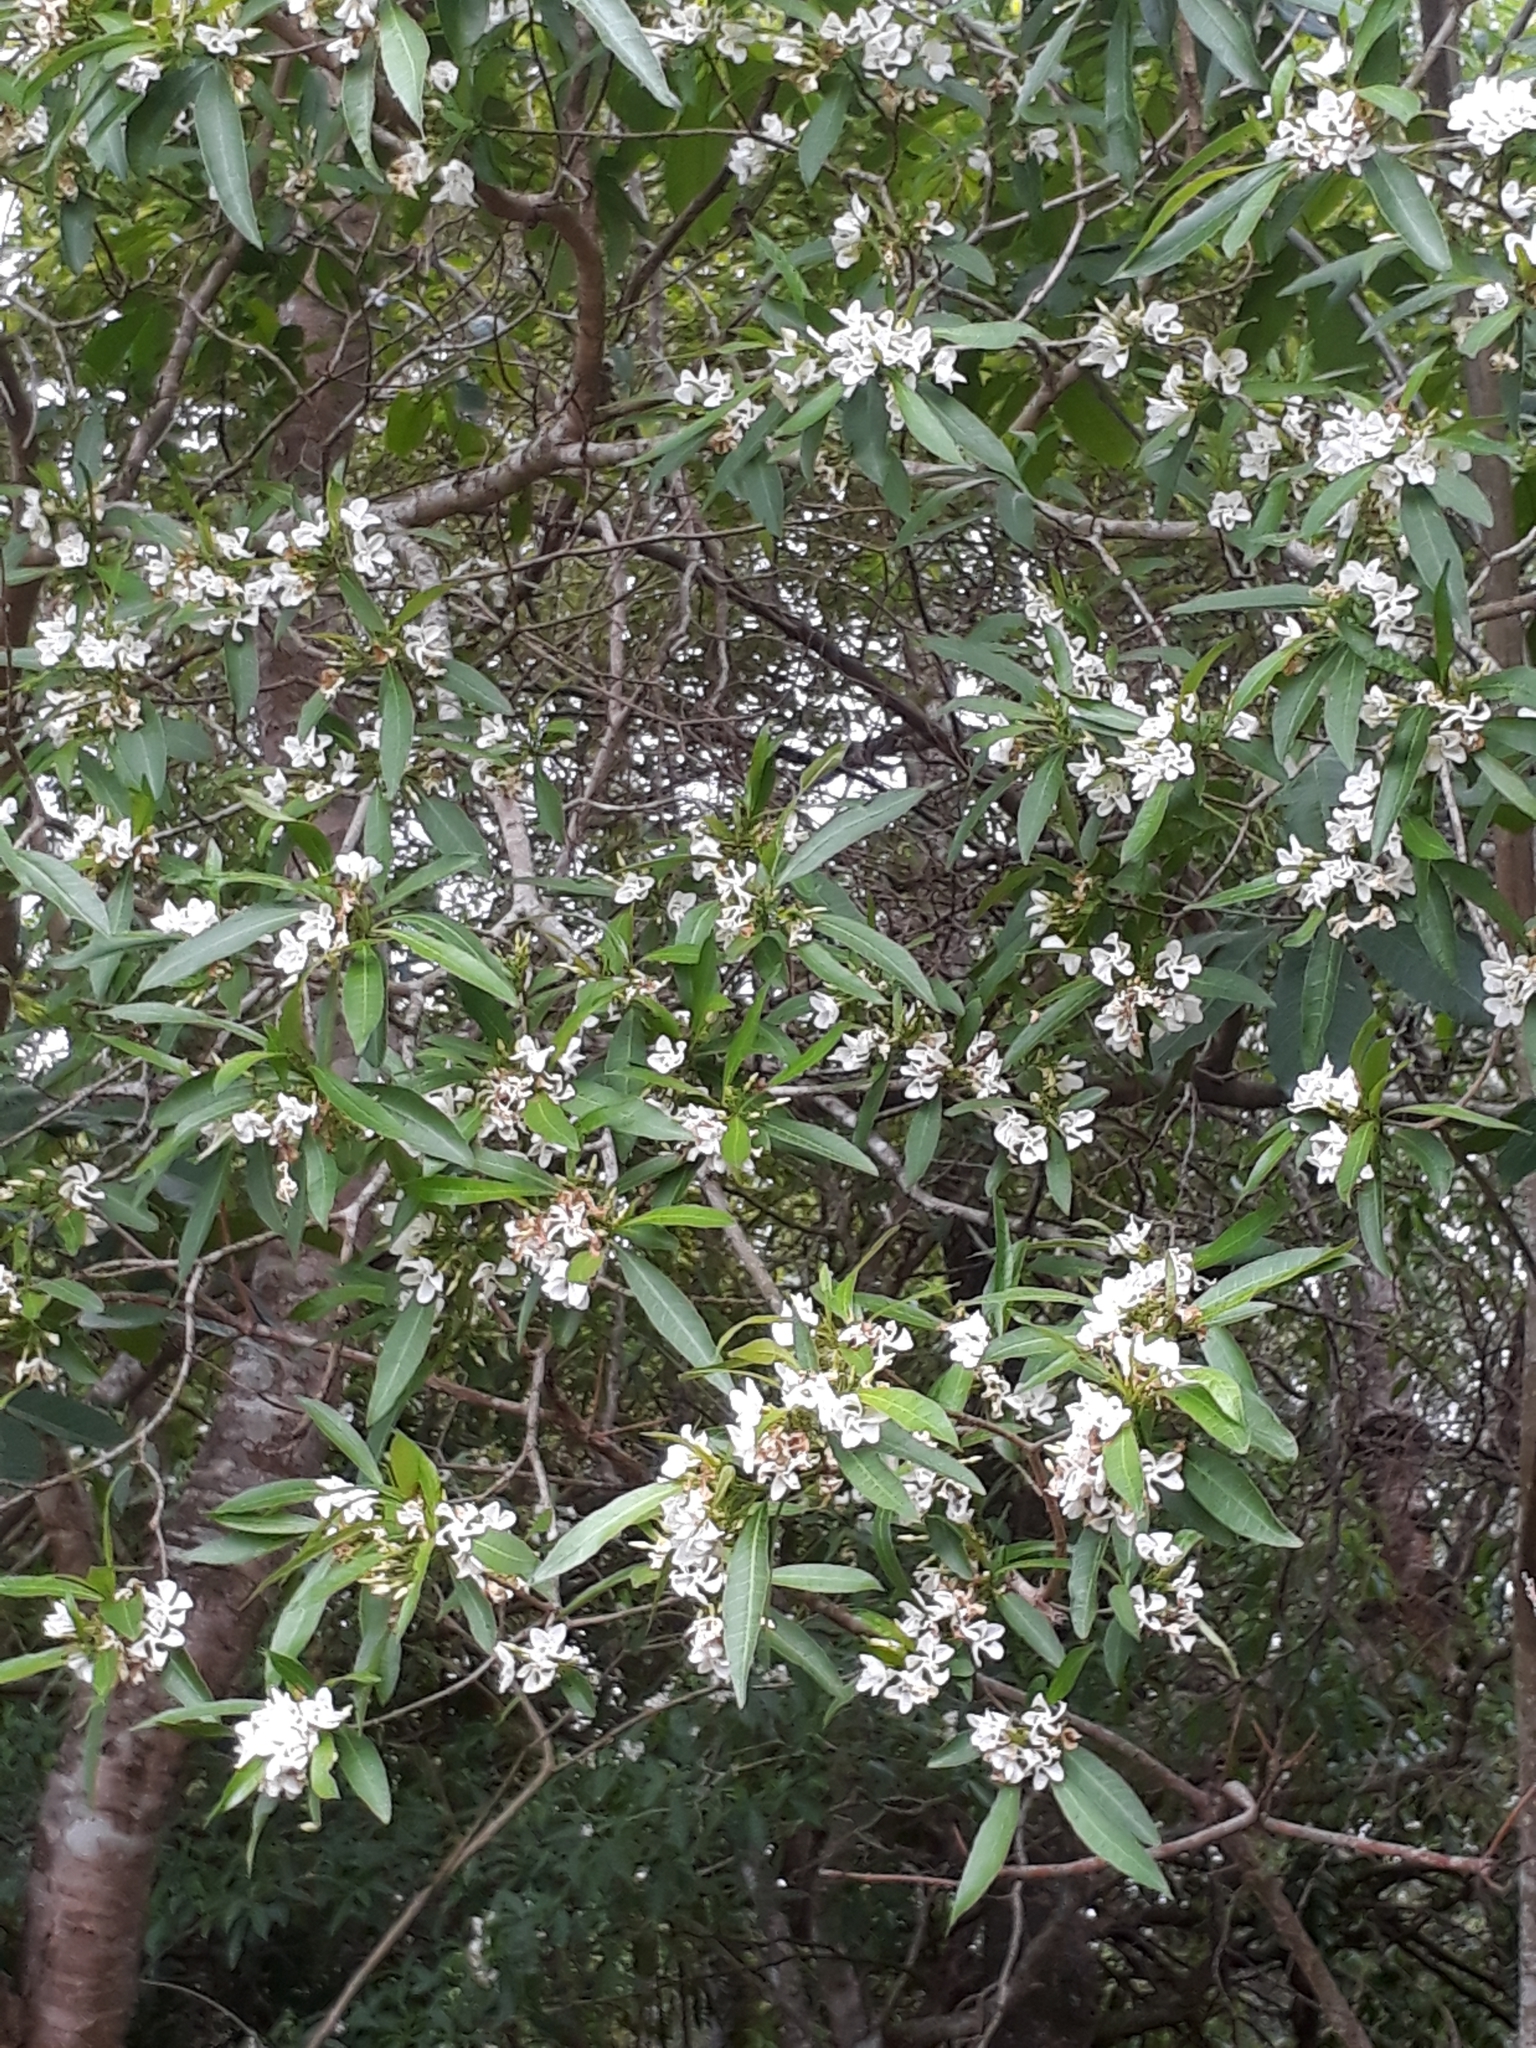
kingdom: Plantae
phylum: Tracheophyta
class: Magnoliopsida
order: Gentianales
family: Apocynaceae
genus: Tabernaemontana
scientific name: Tabernaemontana catharinensis
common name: Pinwheel-flower
